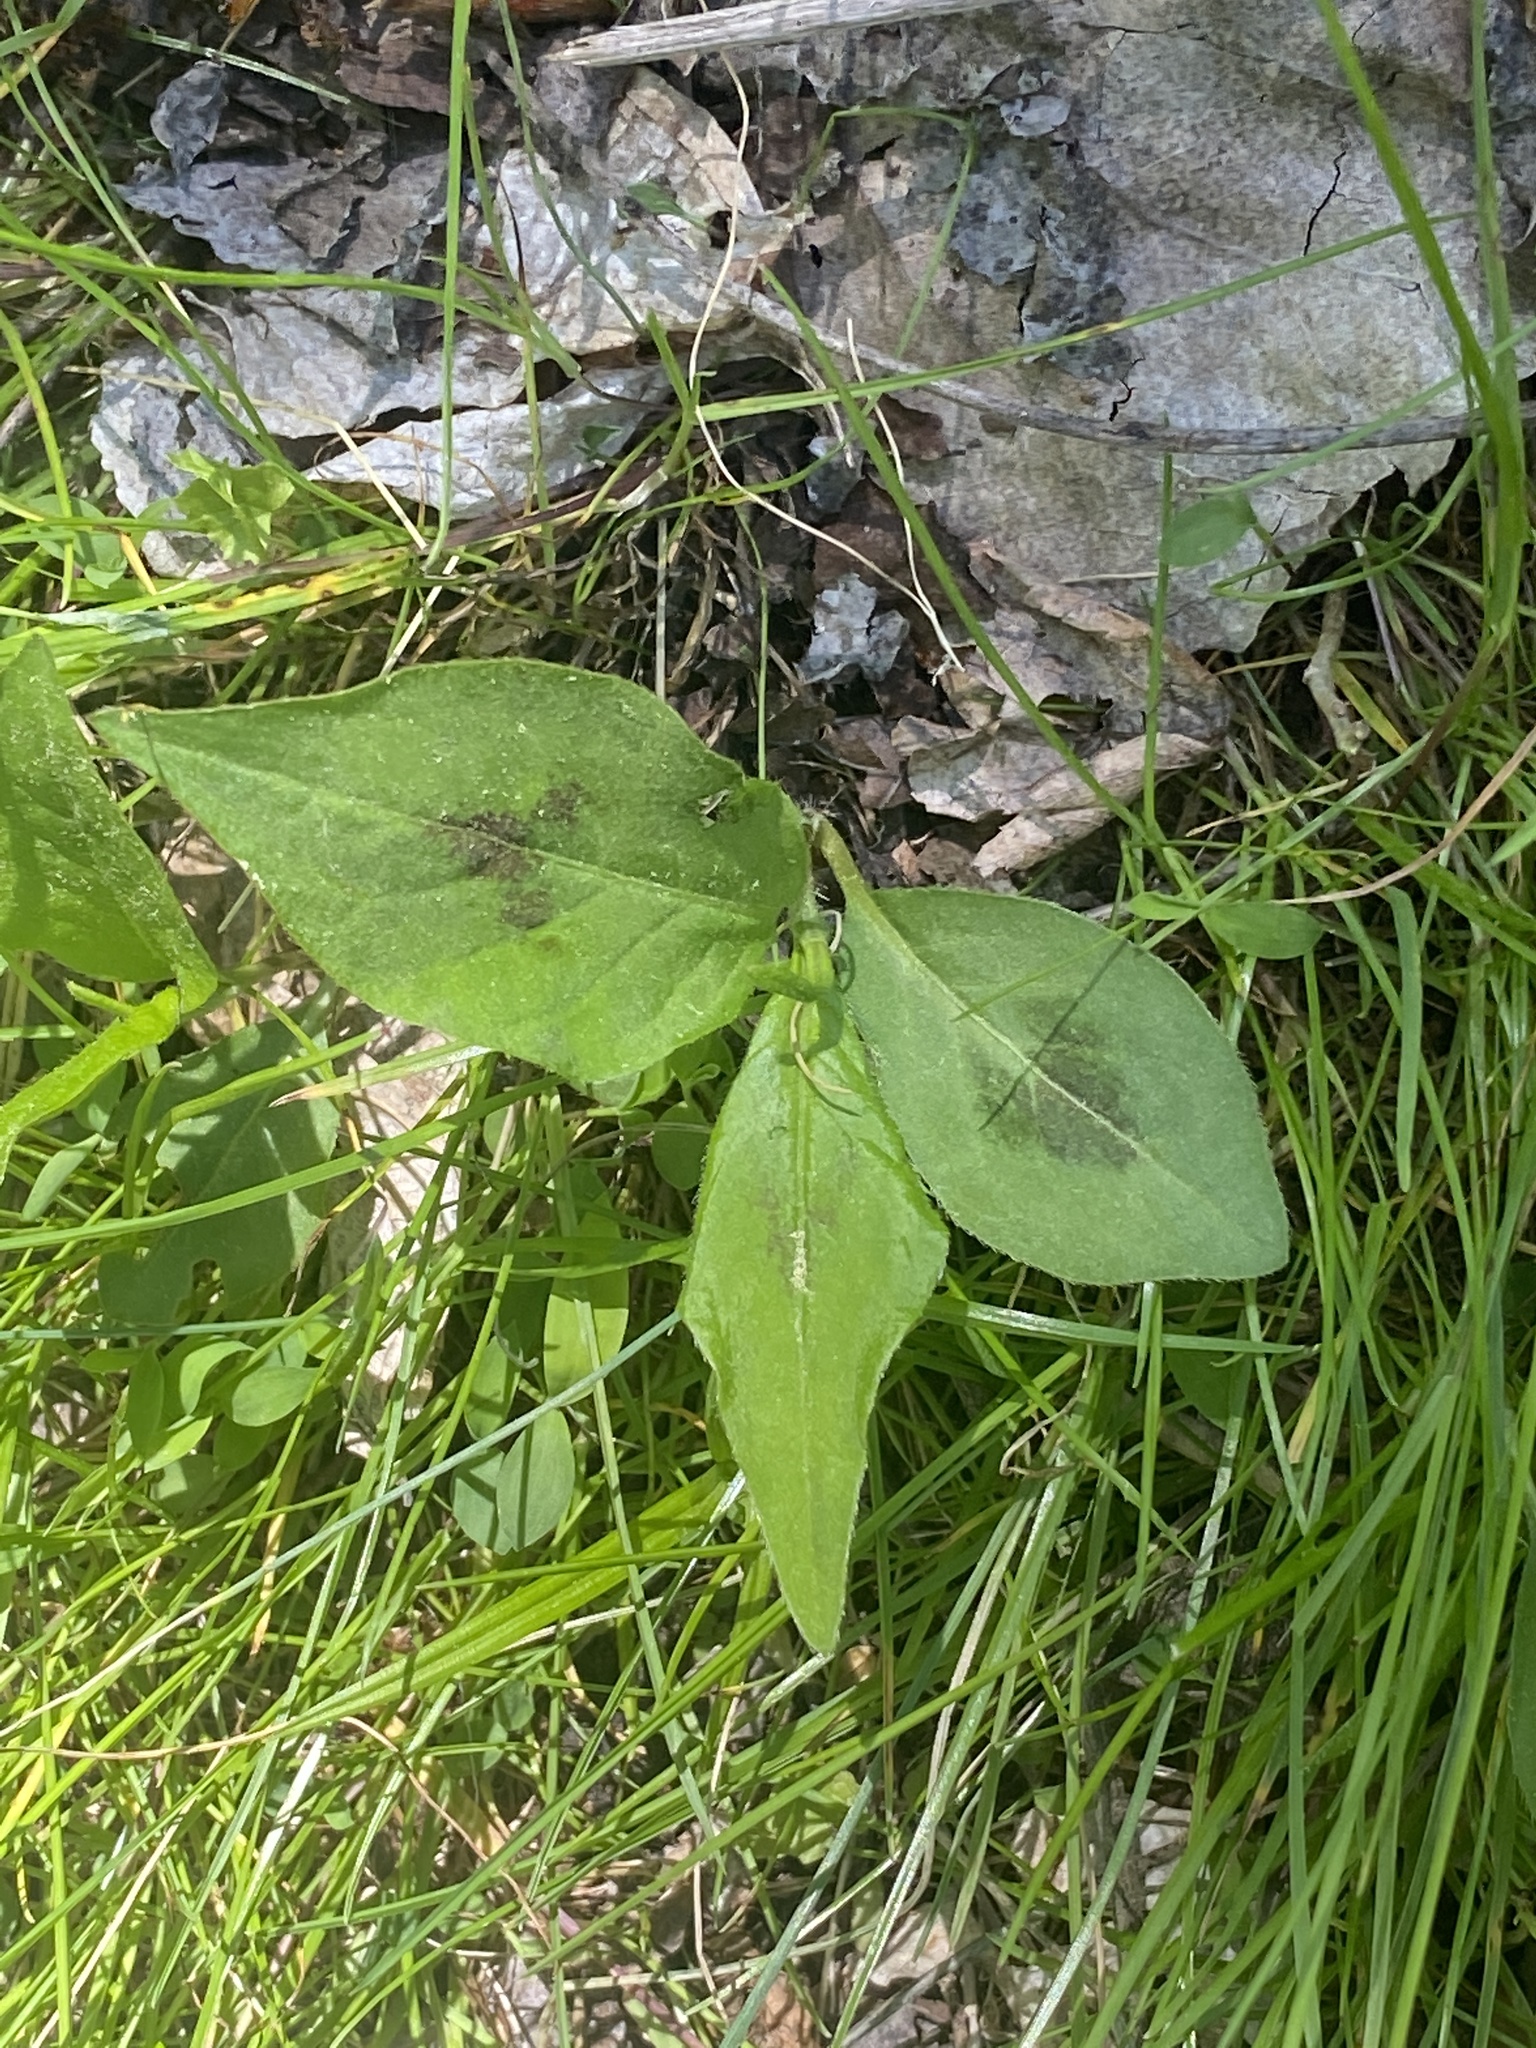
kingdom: Plantae
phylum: Tracheophyta
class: Magnoliopsida
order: Caryophyllales
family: Polygonaceae
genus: Persicaria
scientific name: Persicaria virginiana
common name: Jumpseed
